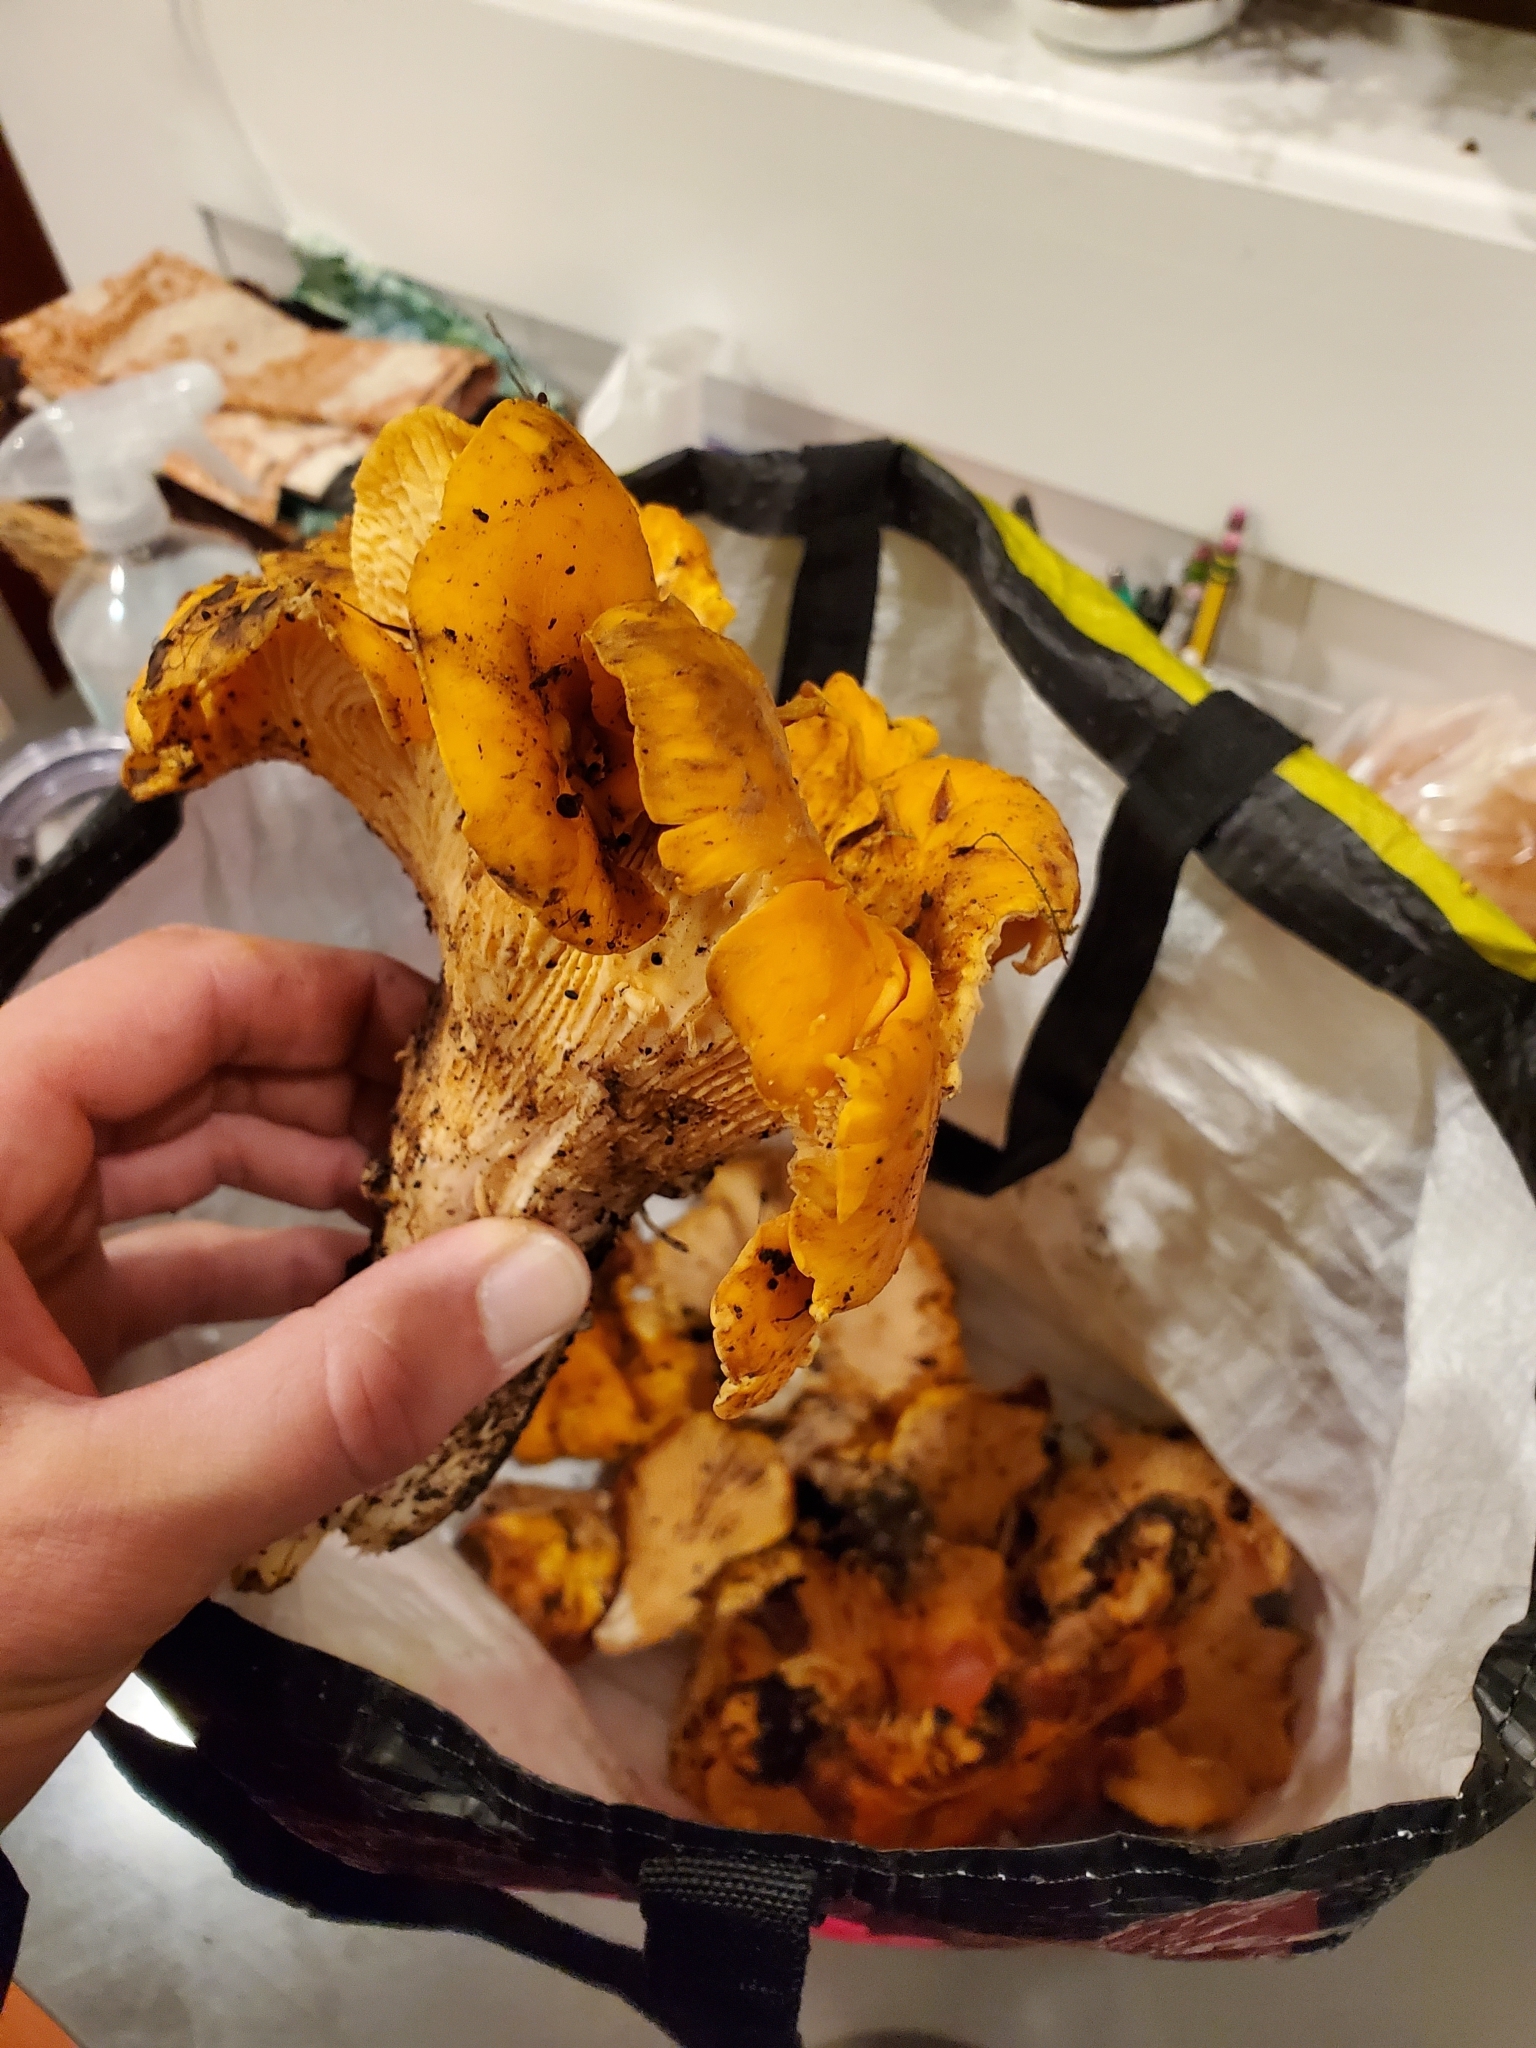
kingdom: Fungi
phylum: Basidiomycota
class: Agaricomycetes
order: Cantharellales
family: Hydnaceae
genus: Cantharellus
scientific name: Cantharellus californicus
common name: California golden chanterelle
